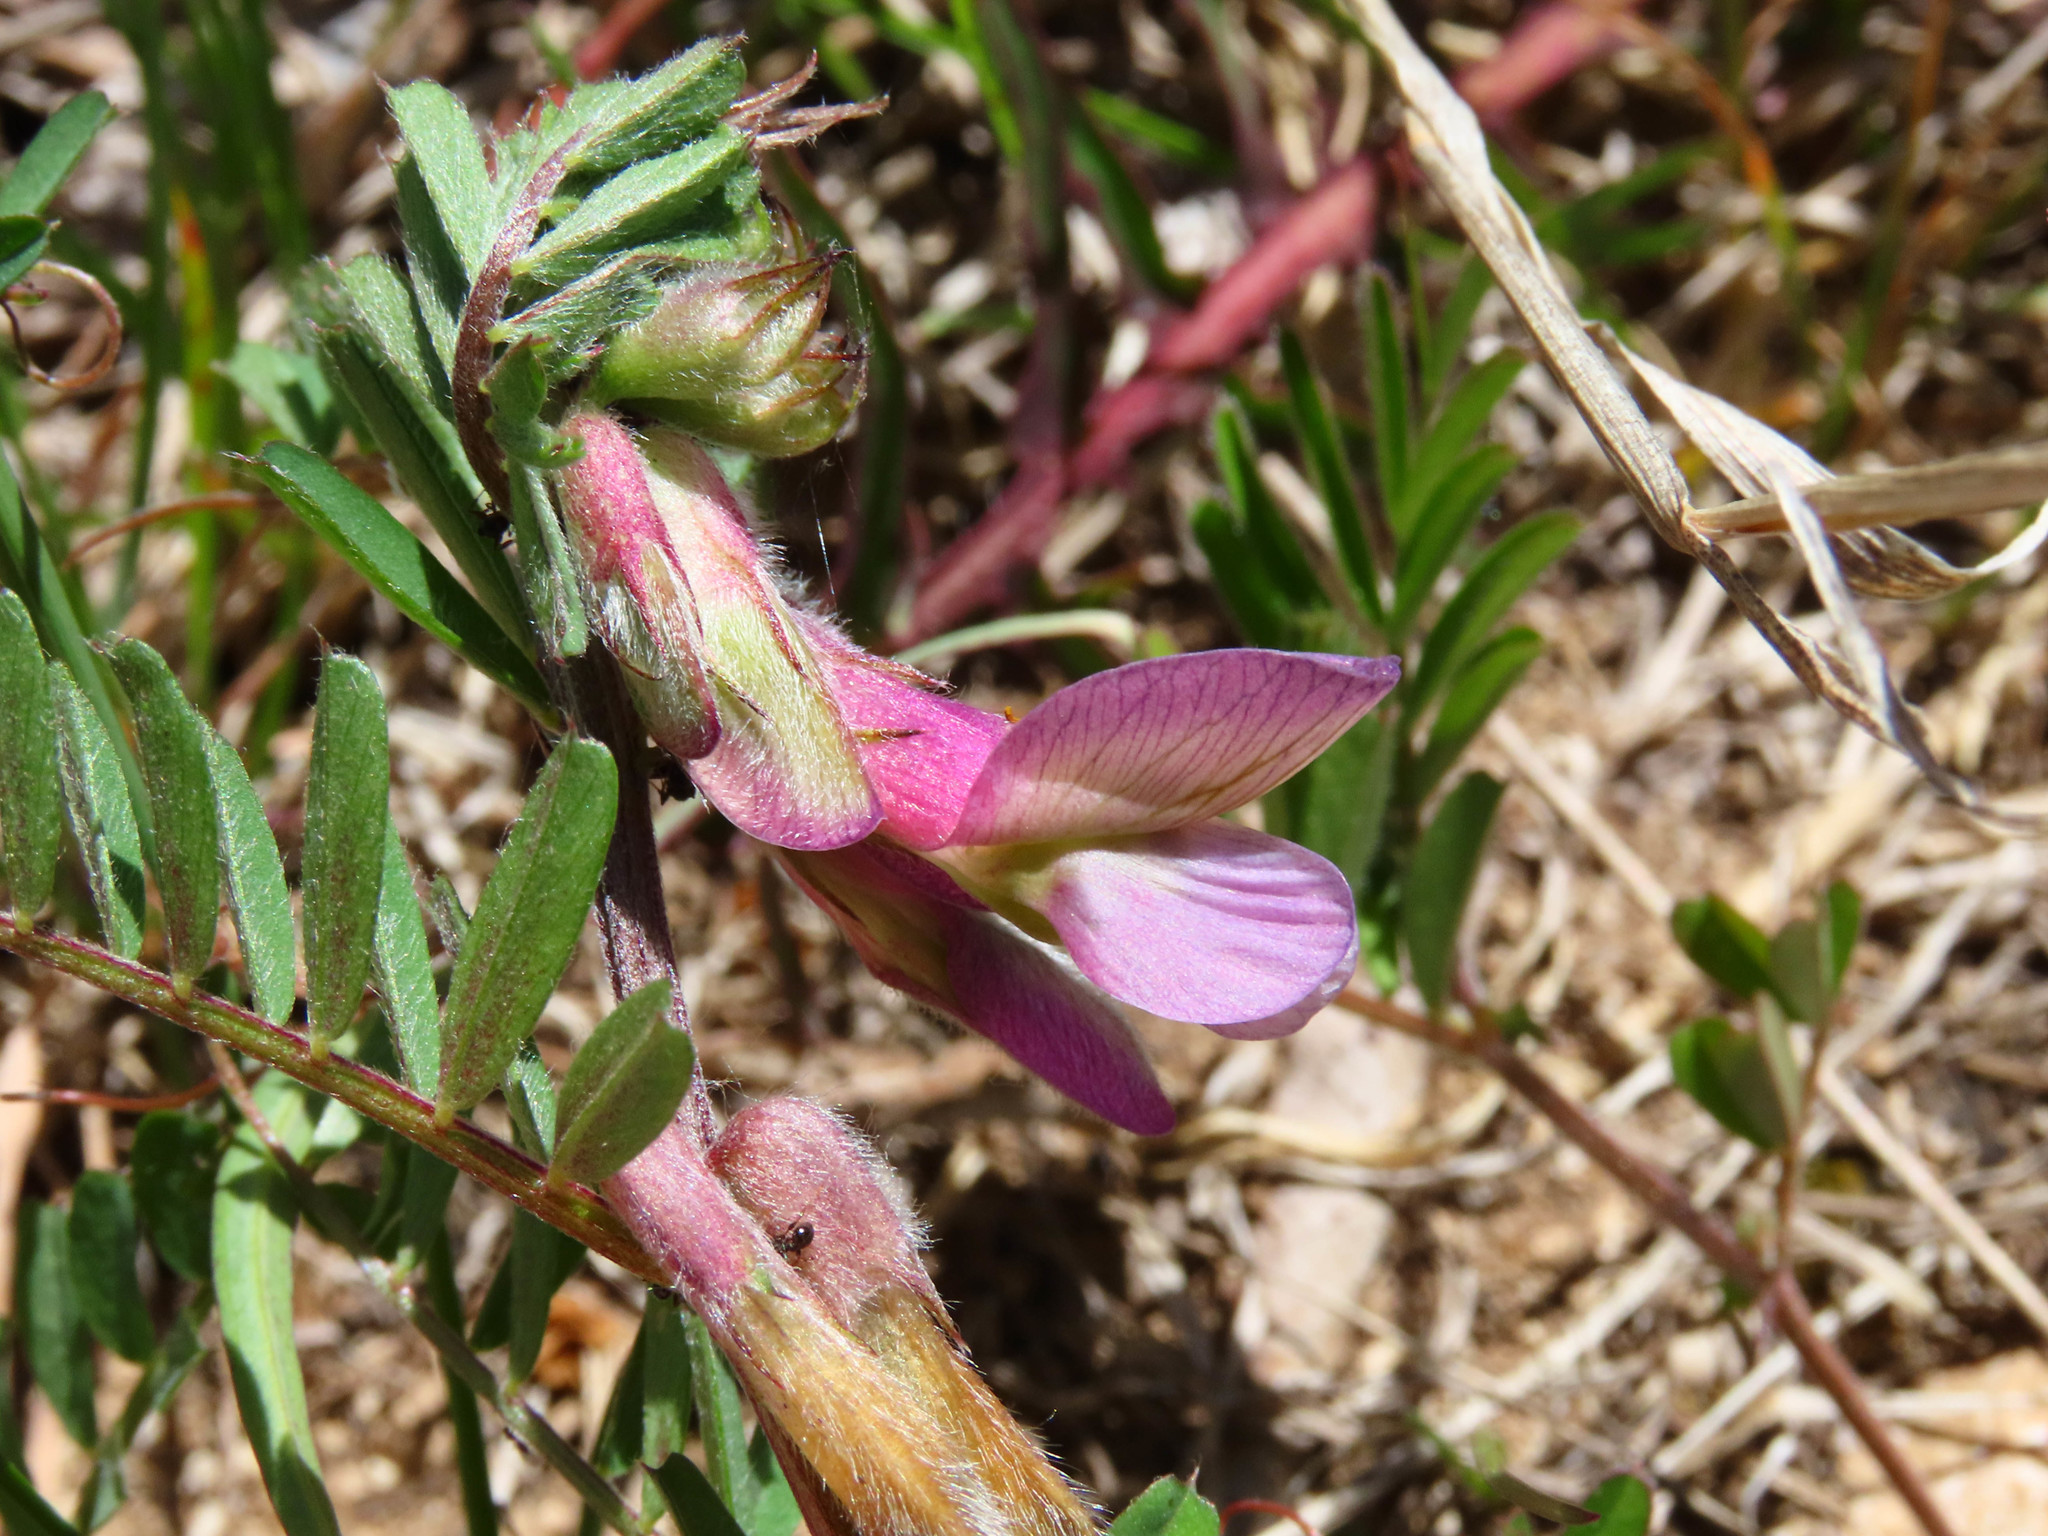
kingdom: Plantae
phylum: Tracheophyta
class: Magnoliopsida
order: Fabales
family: Fabaceae
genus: Vicia
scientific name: Vicia pannonica
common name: Hungarian vetch
